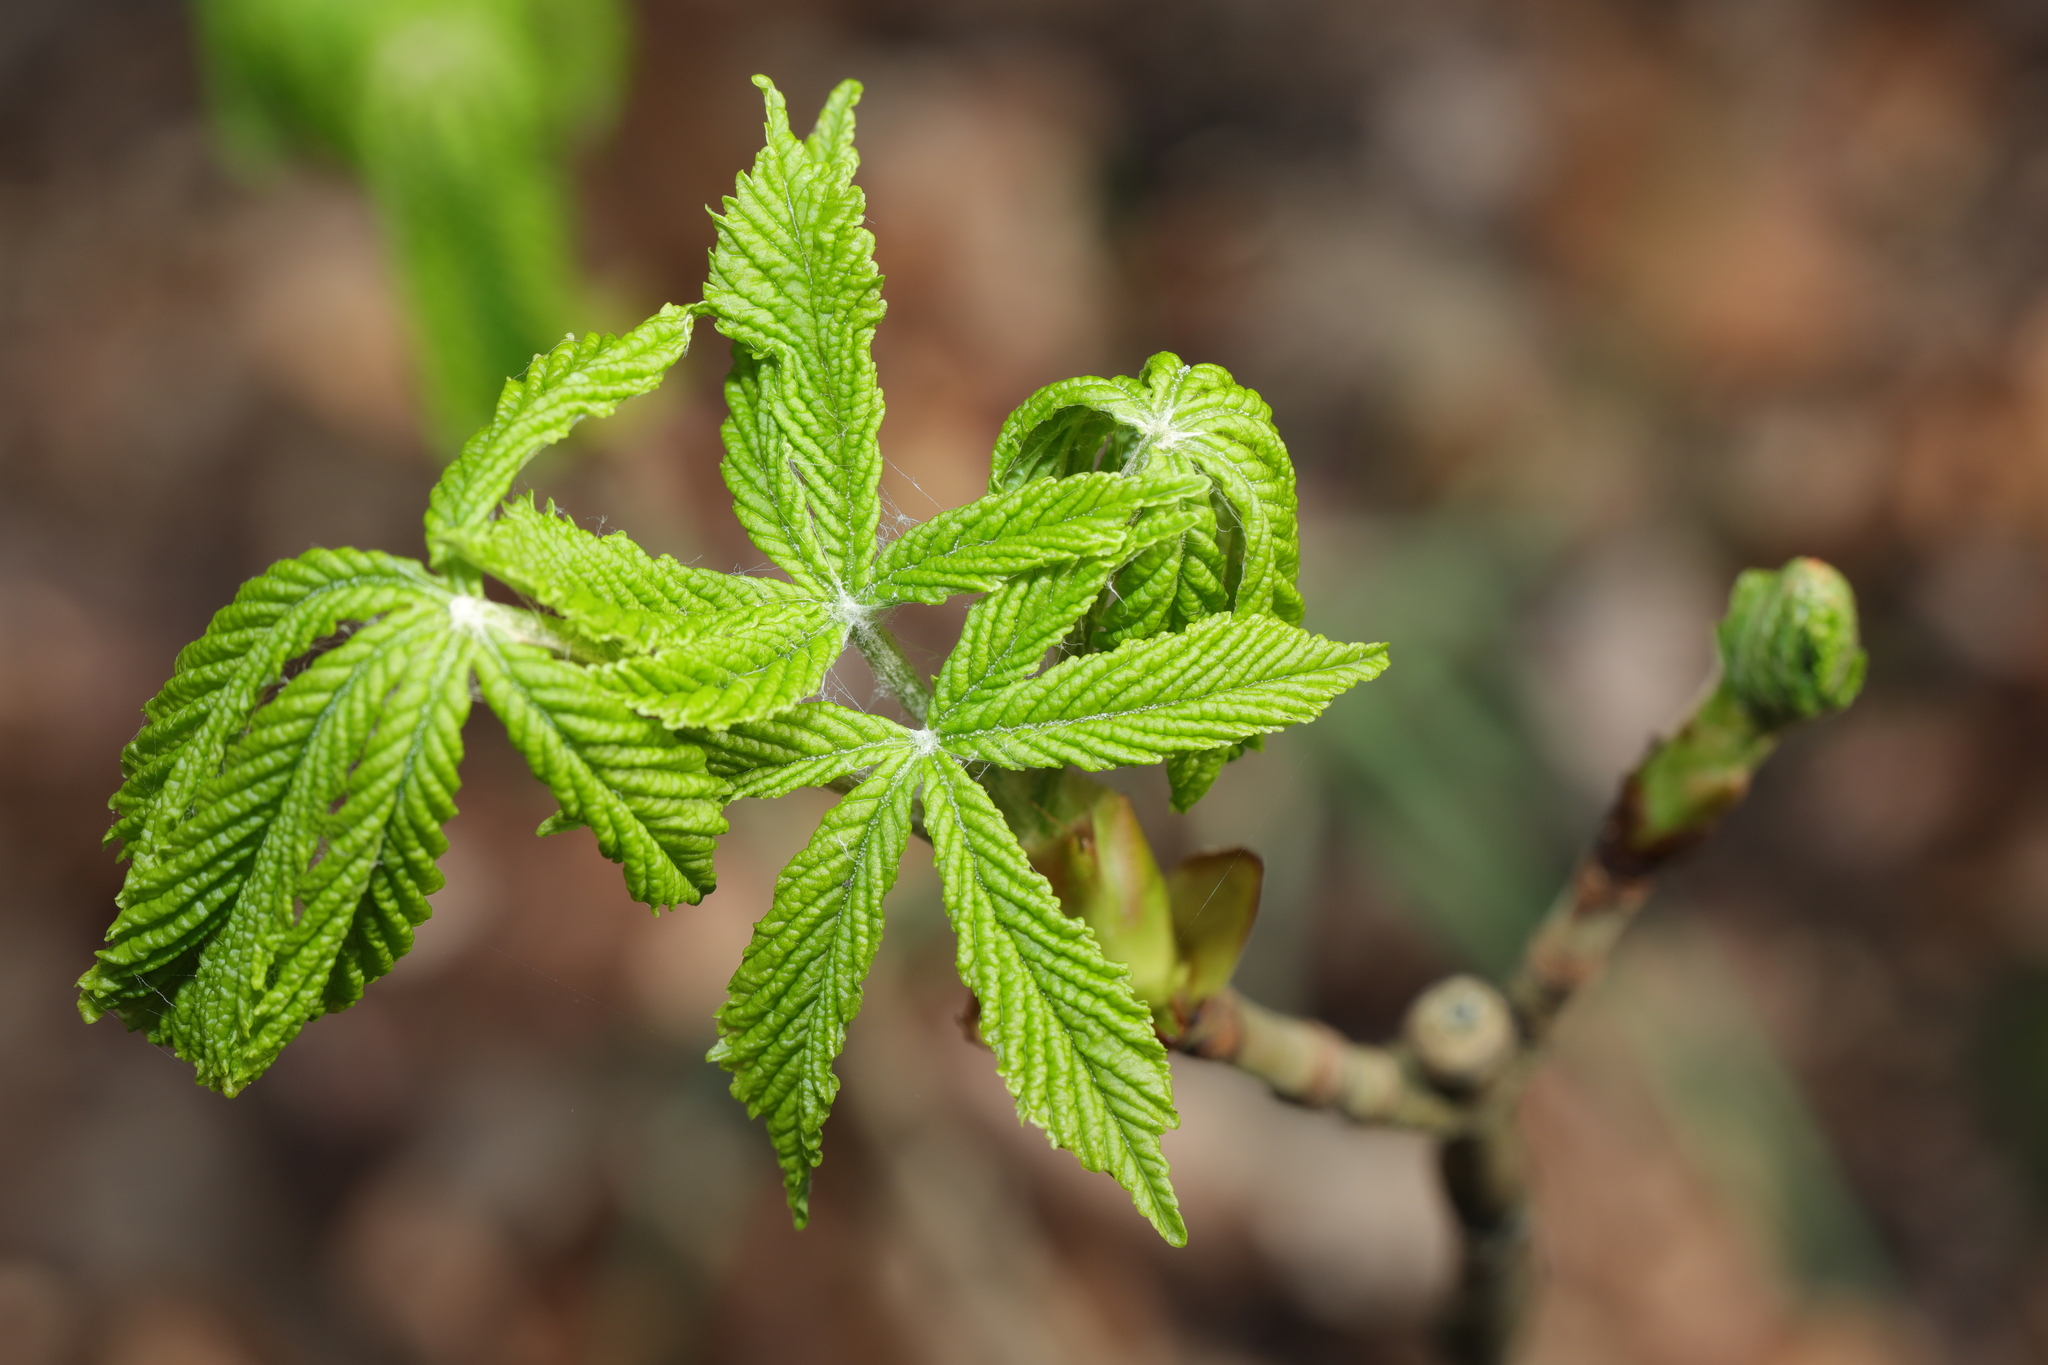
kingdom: Plantae
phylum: Tracheophyta
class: Magnoliopsida
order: Sapindales
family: Sapindaceae
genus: Aesculus
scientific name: Aesculus hippocastanum
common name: Horse-chestnut
